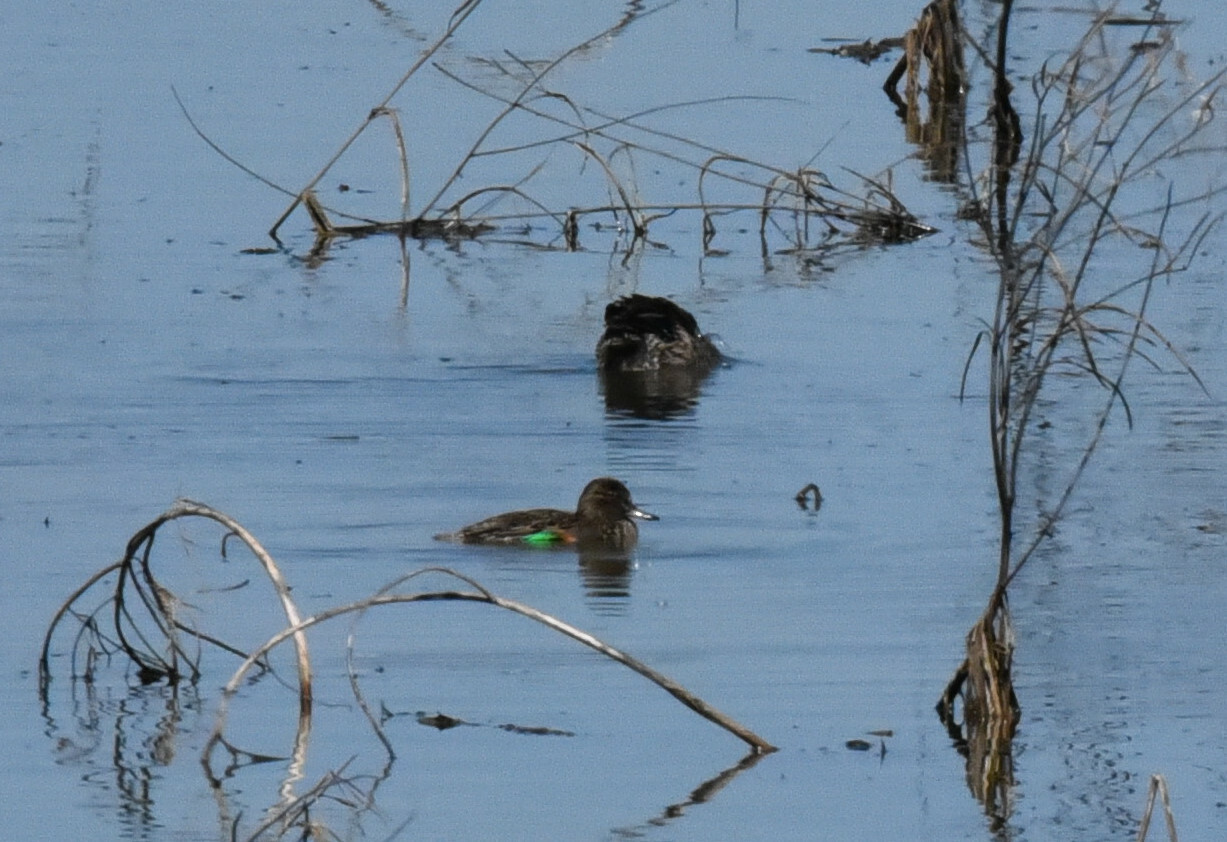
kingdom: Animalia
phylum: Chordata
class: Aves
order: Anseriformes
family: Anatidae
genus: Anas
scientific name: Anas crecca
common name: Eurasian teal
